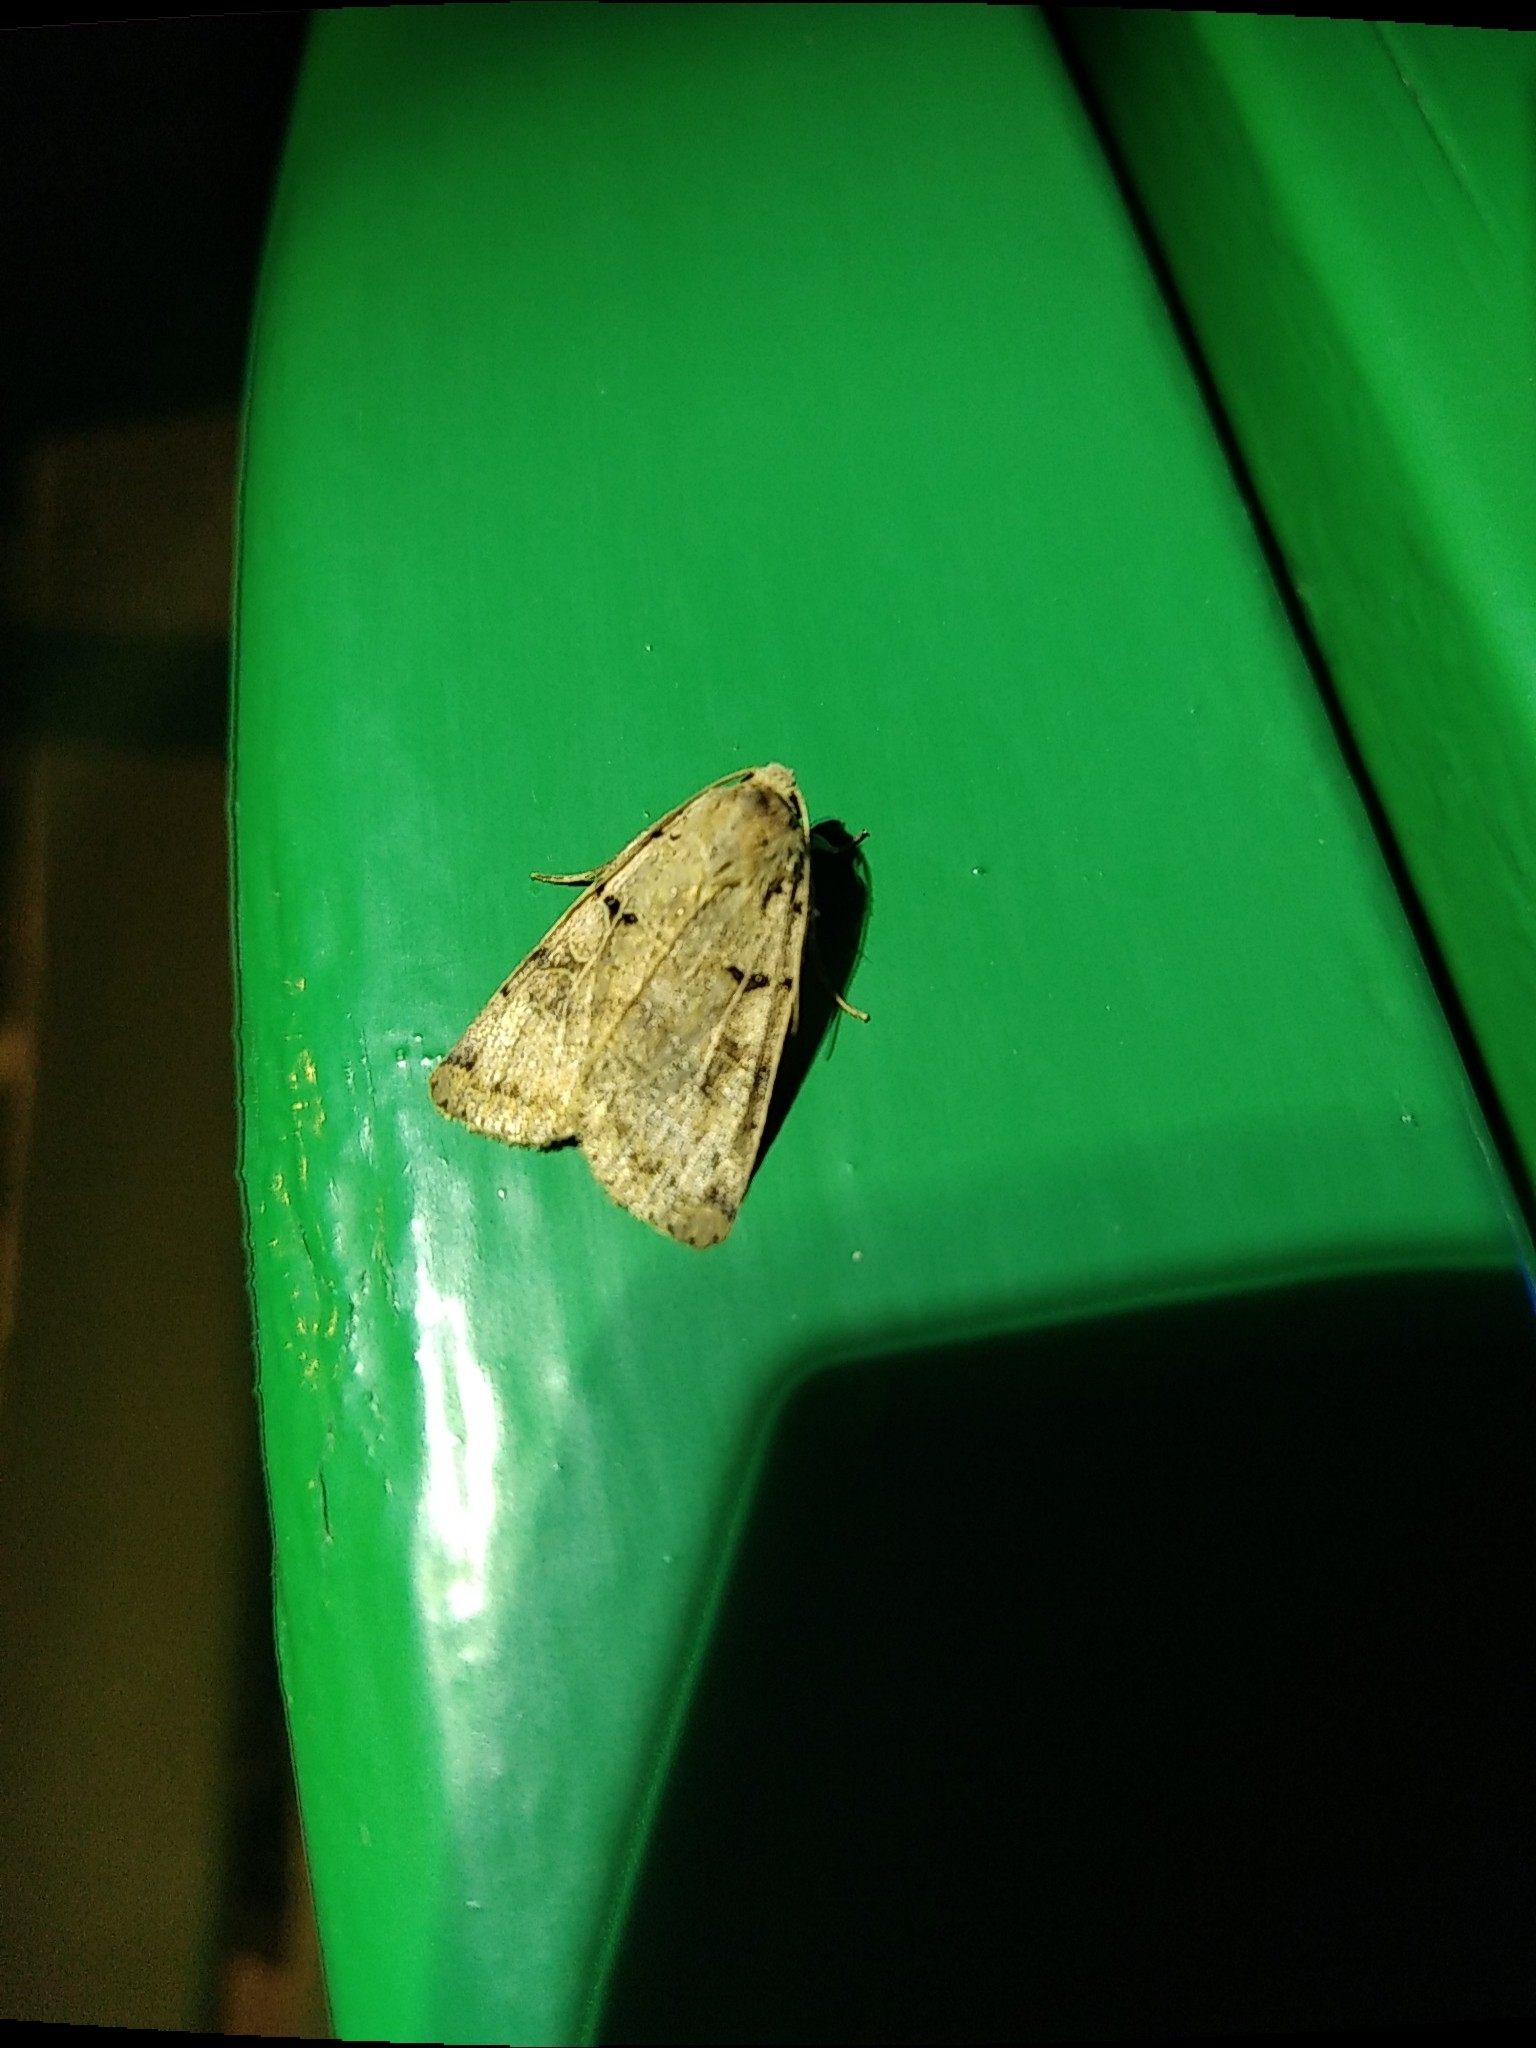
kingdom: Animalia
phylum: Arthropoda
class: Insecta
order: Lepidoptera
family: Noctuidae
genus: Eugnorisma
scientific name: Eugnorisma depuncta
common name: Plain clay
